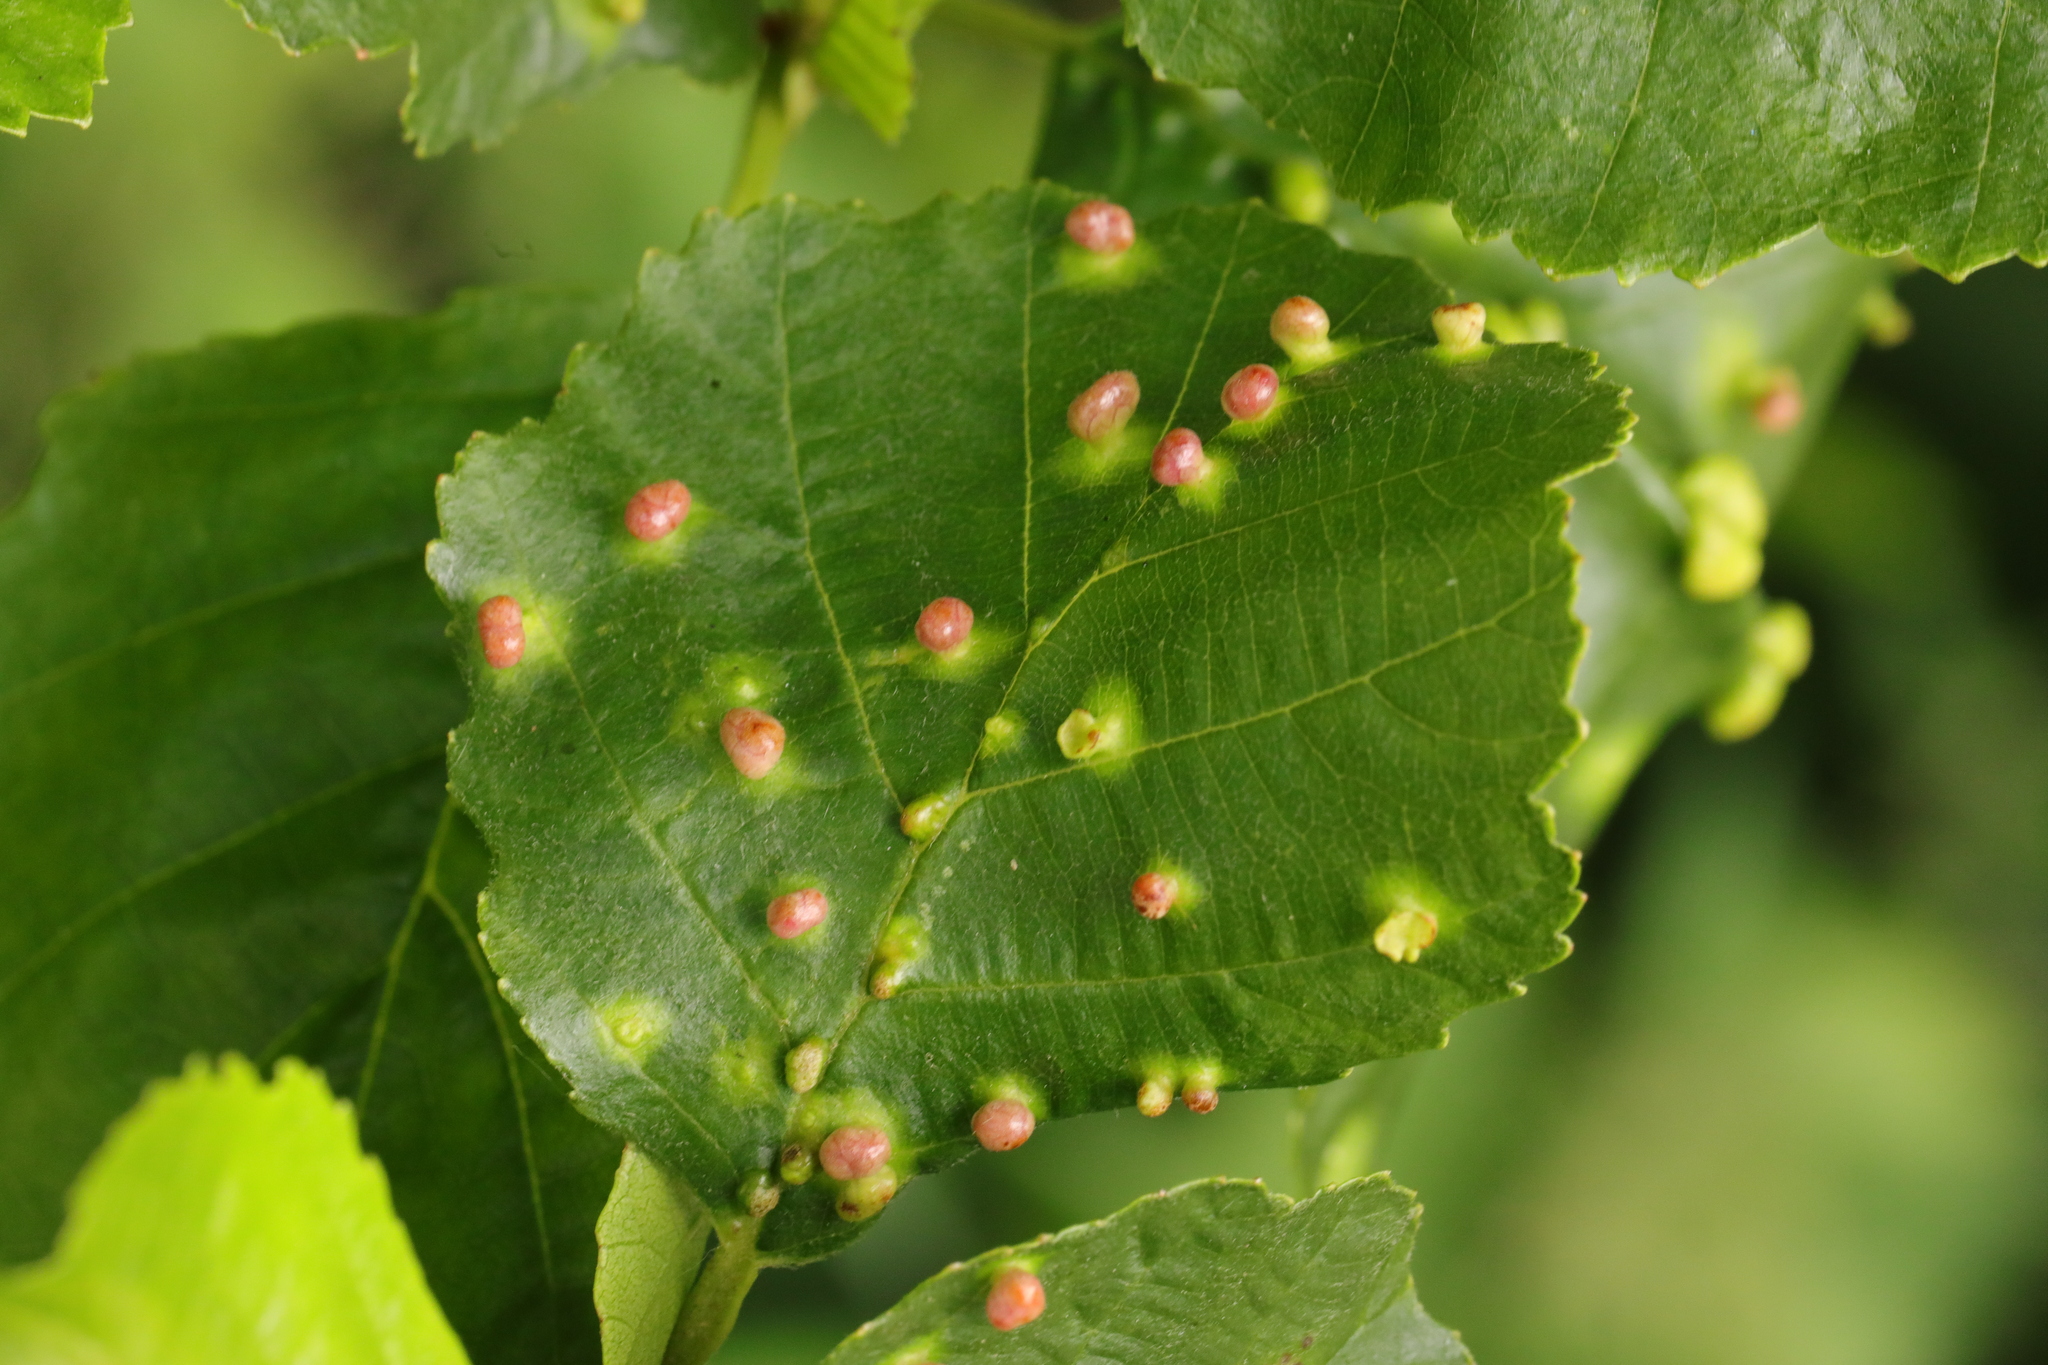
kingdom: Animalia
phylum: Arthropoda
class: Arachnida
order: Trombidiformes
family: Eriophyidae
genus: Eriophyes
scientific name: Eriophyes laevis
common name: Alder leaf gall mite
